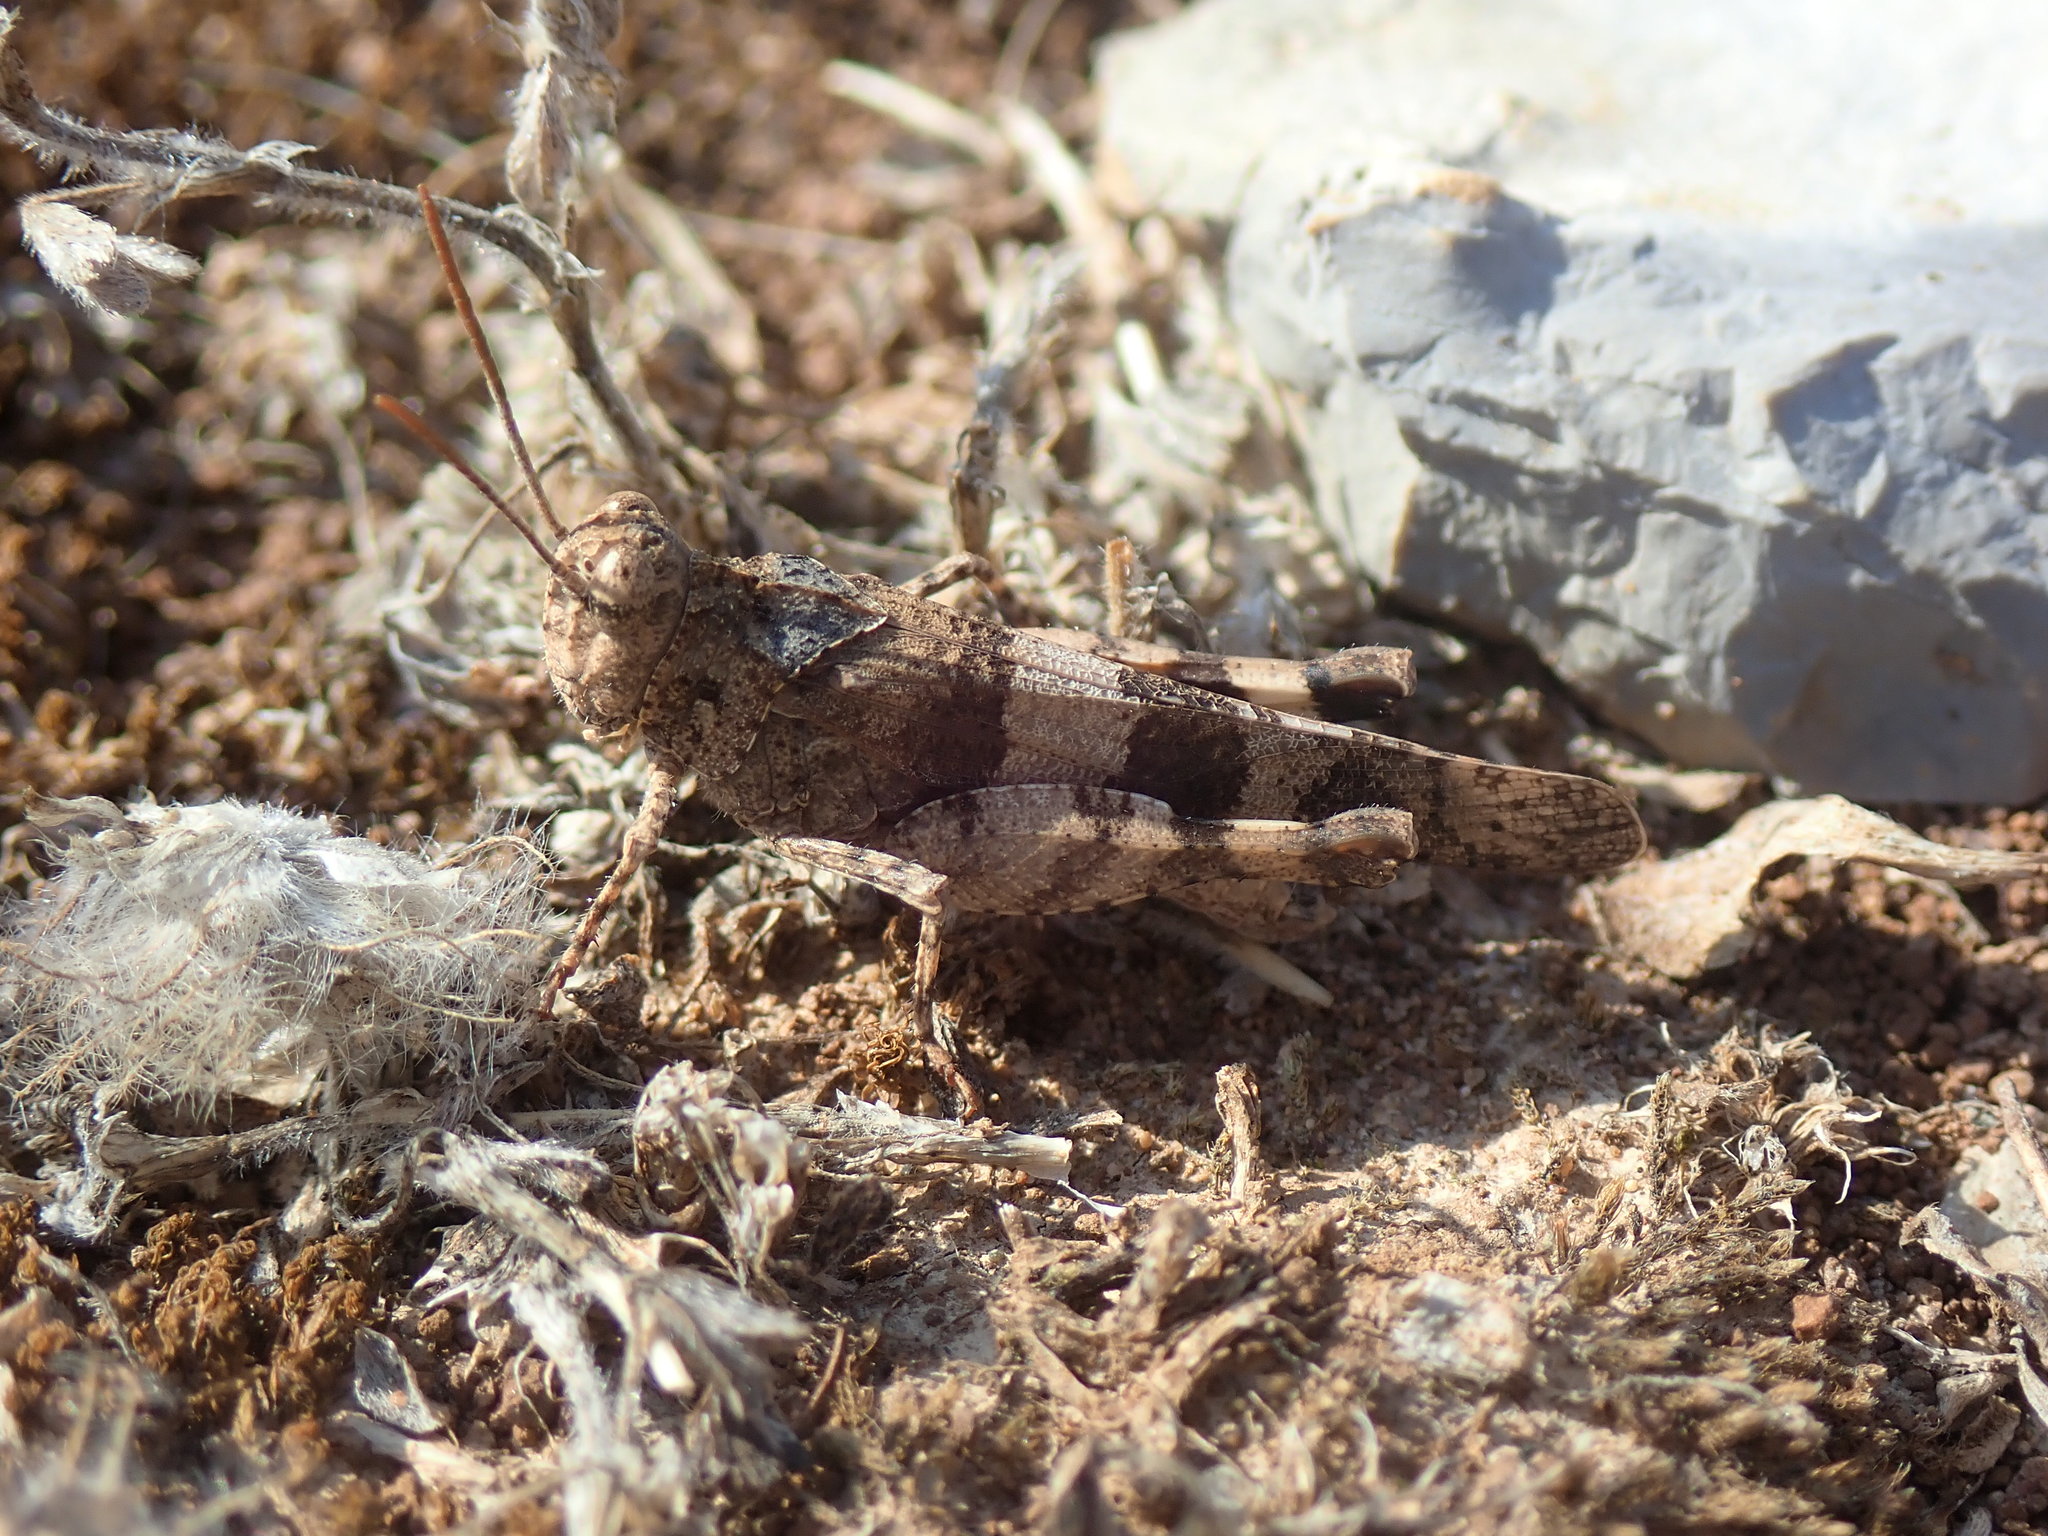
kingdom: Animalia
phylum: Arthropoda
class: Insecta
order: Orthoptera
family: Acrididae
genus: Oedipoda
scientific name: Oedipoda caerulescens
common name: Blue-winged grasshopper
